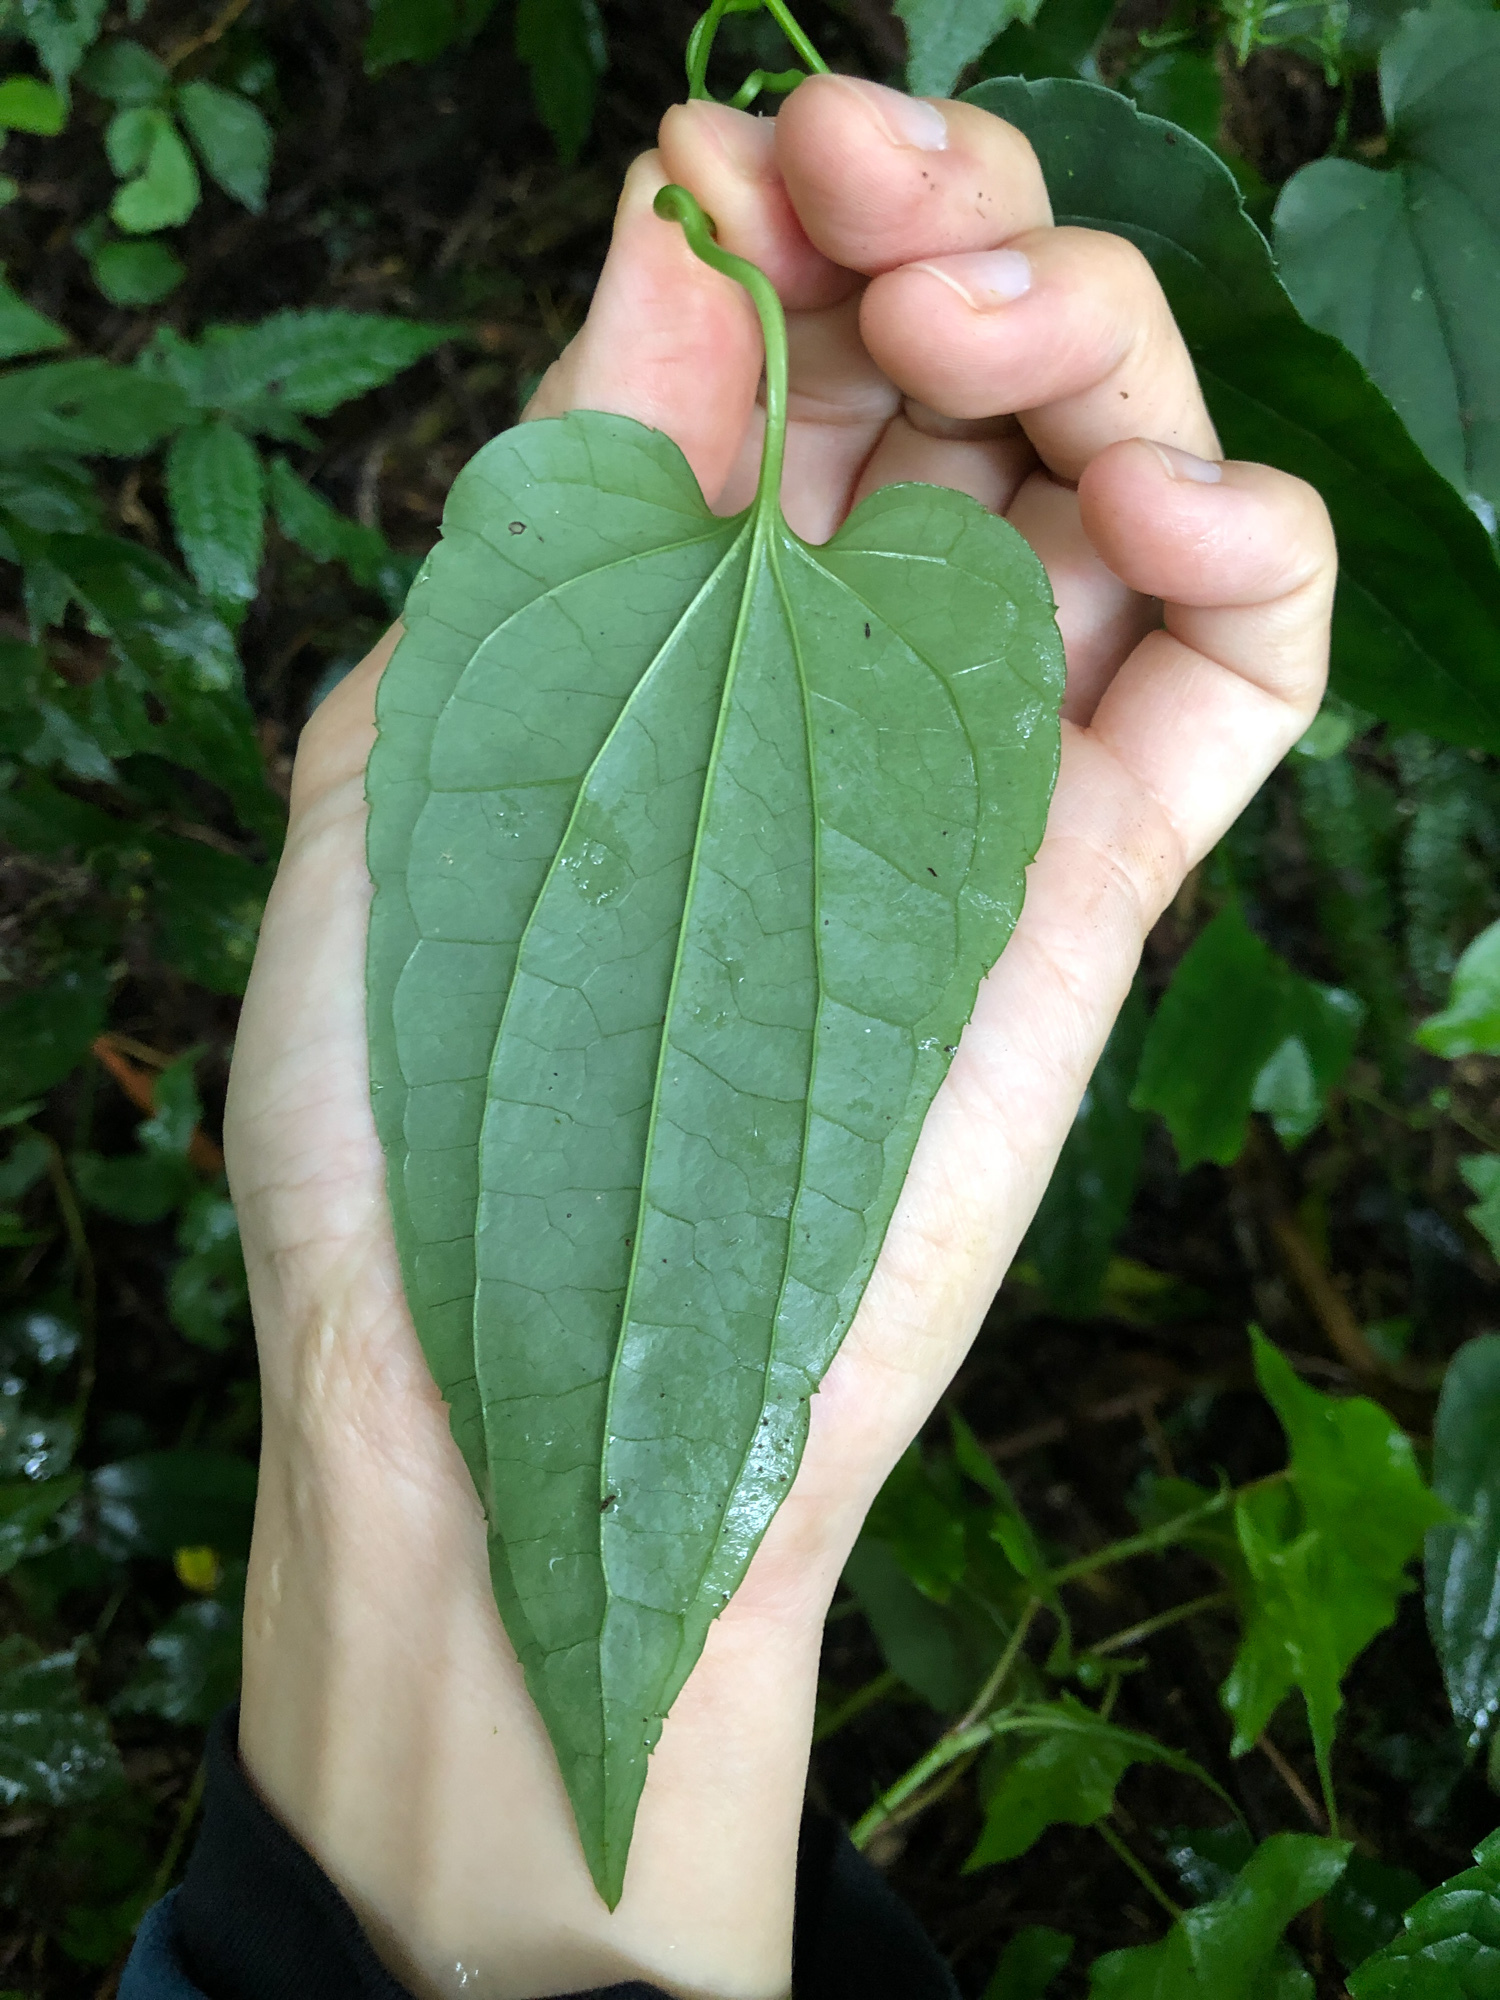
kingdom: Plantae
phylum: Tracheophyta
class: Magnoliopsida
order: Ranunculales
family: Ranunculaceae
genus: Clematis
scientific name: Clematis tashiroi
